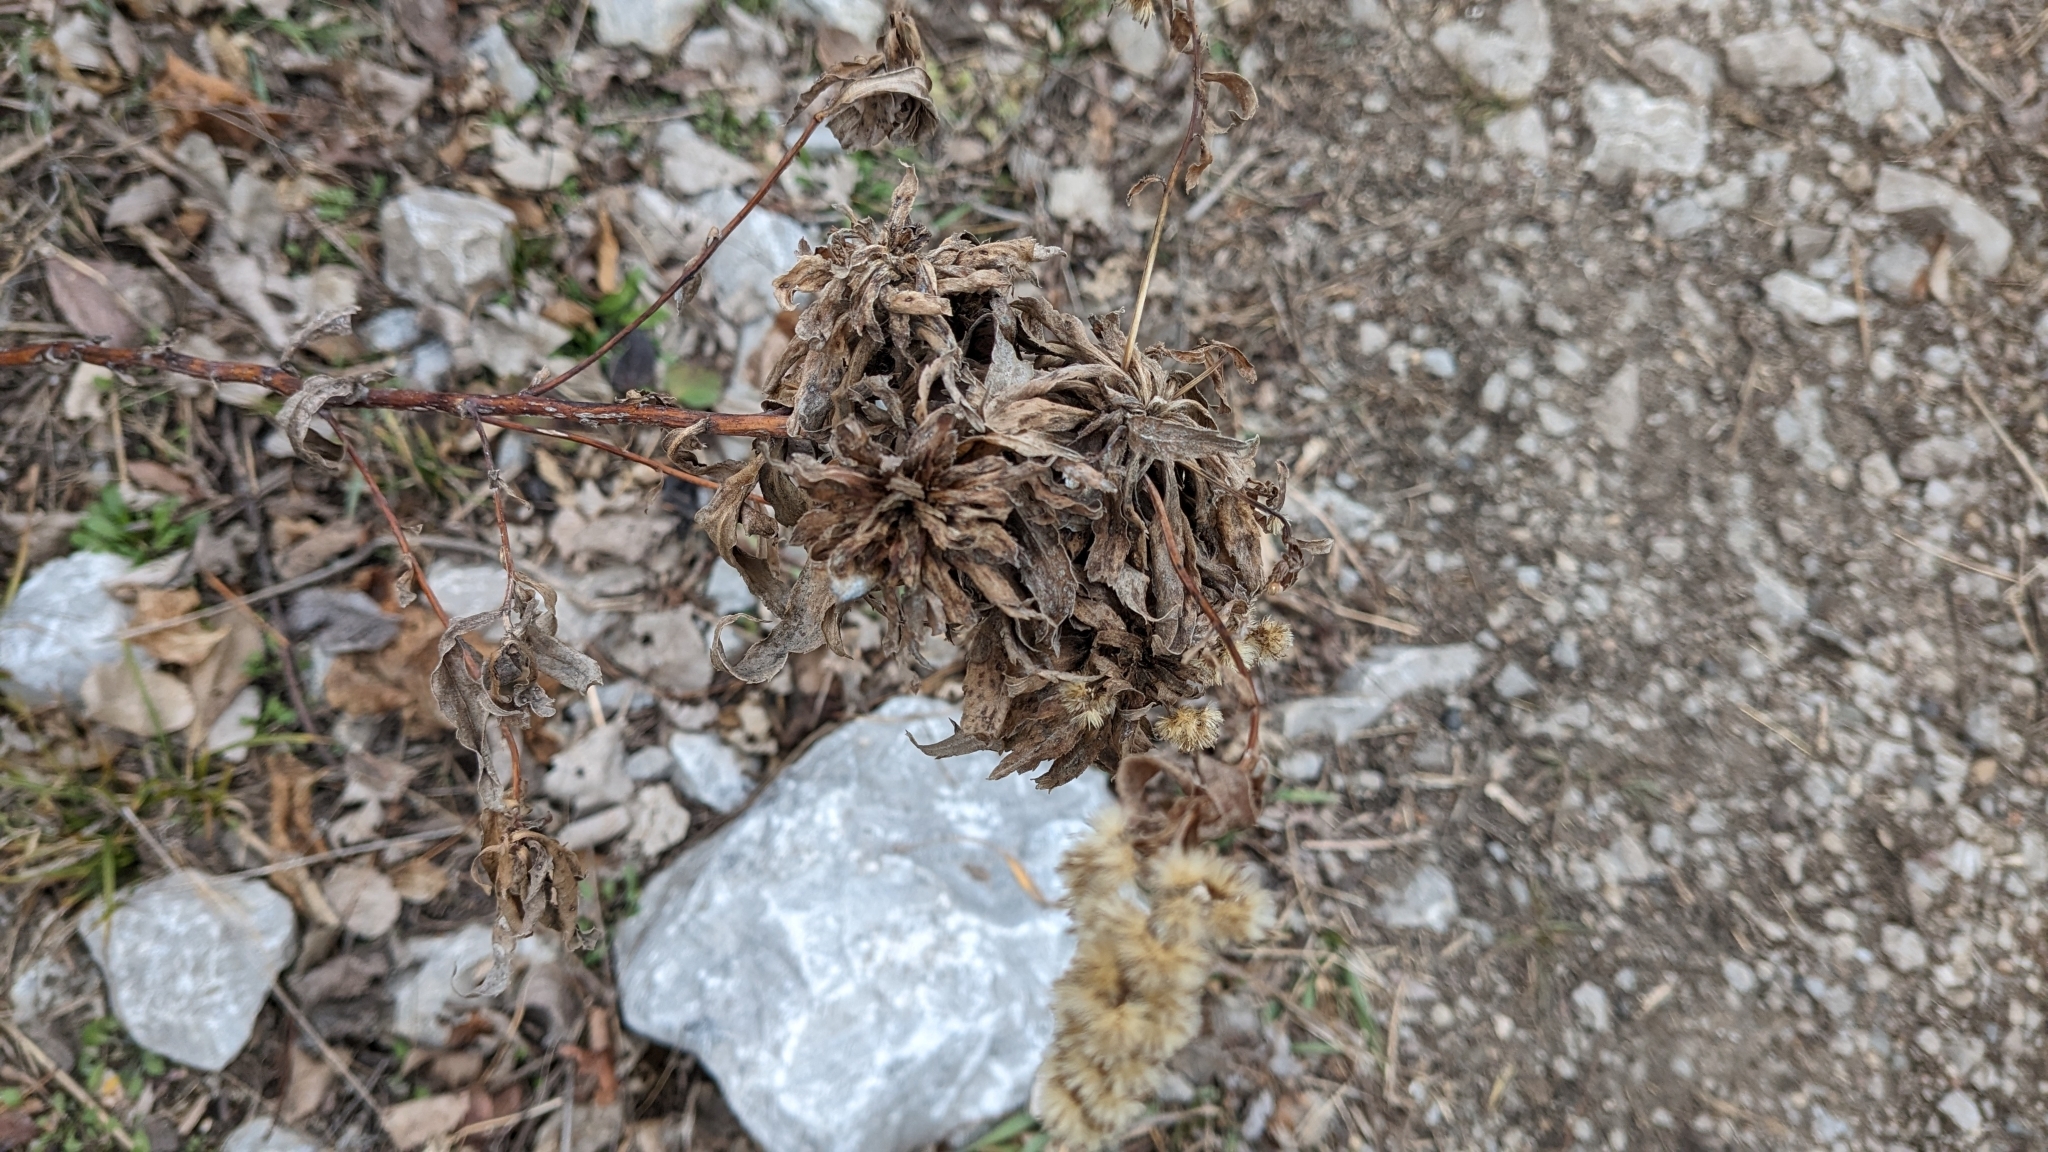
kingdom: Animalia
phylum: Arthropoda
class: Insecta
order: Diptera
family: Cecidomyiidae
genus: Rhopalomyia
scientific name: Rhopalomyia solidaginis
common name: Goldenrod bunch gall midge
